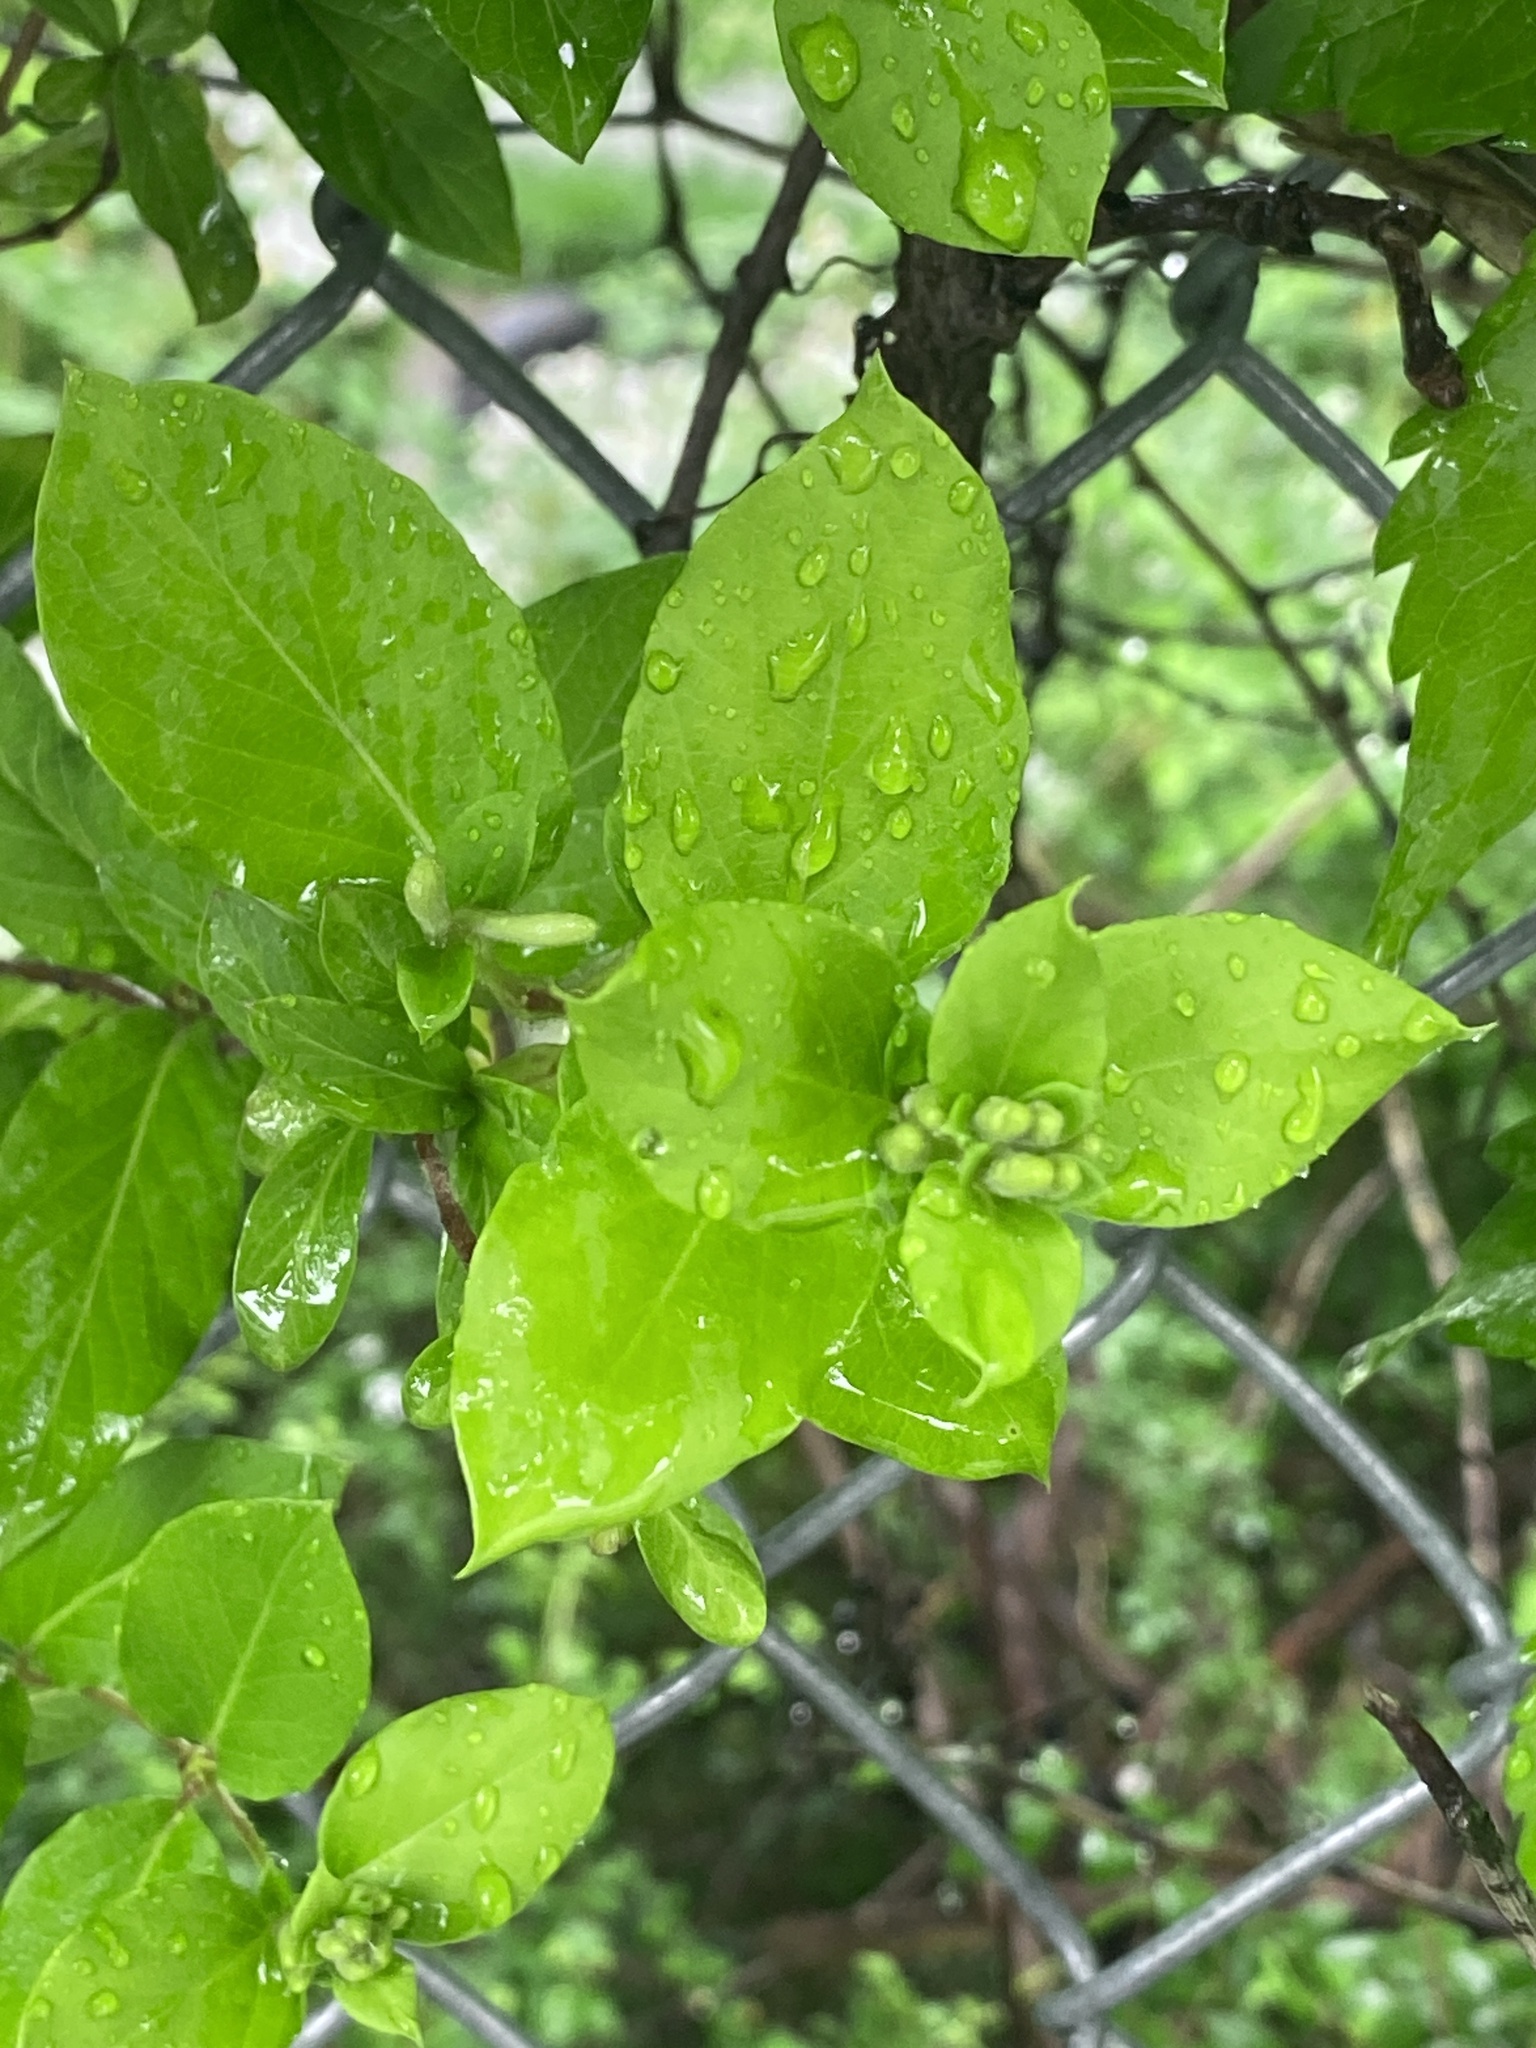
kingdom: Plantae
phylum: Tracheophyta
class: Magnoliopsida
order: Dipsacales
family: Caprifoliaceae
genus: Lonicera
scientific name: Lonicera japonica
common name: Japanese honeysuckle
